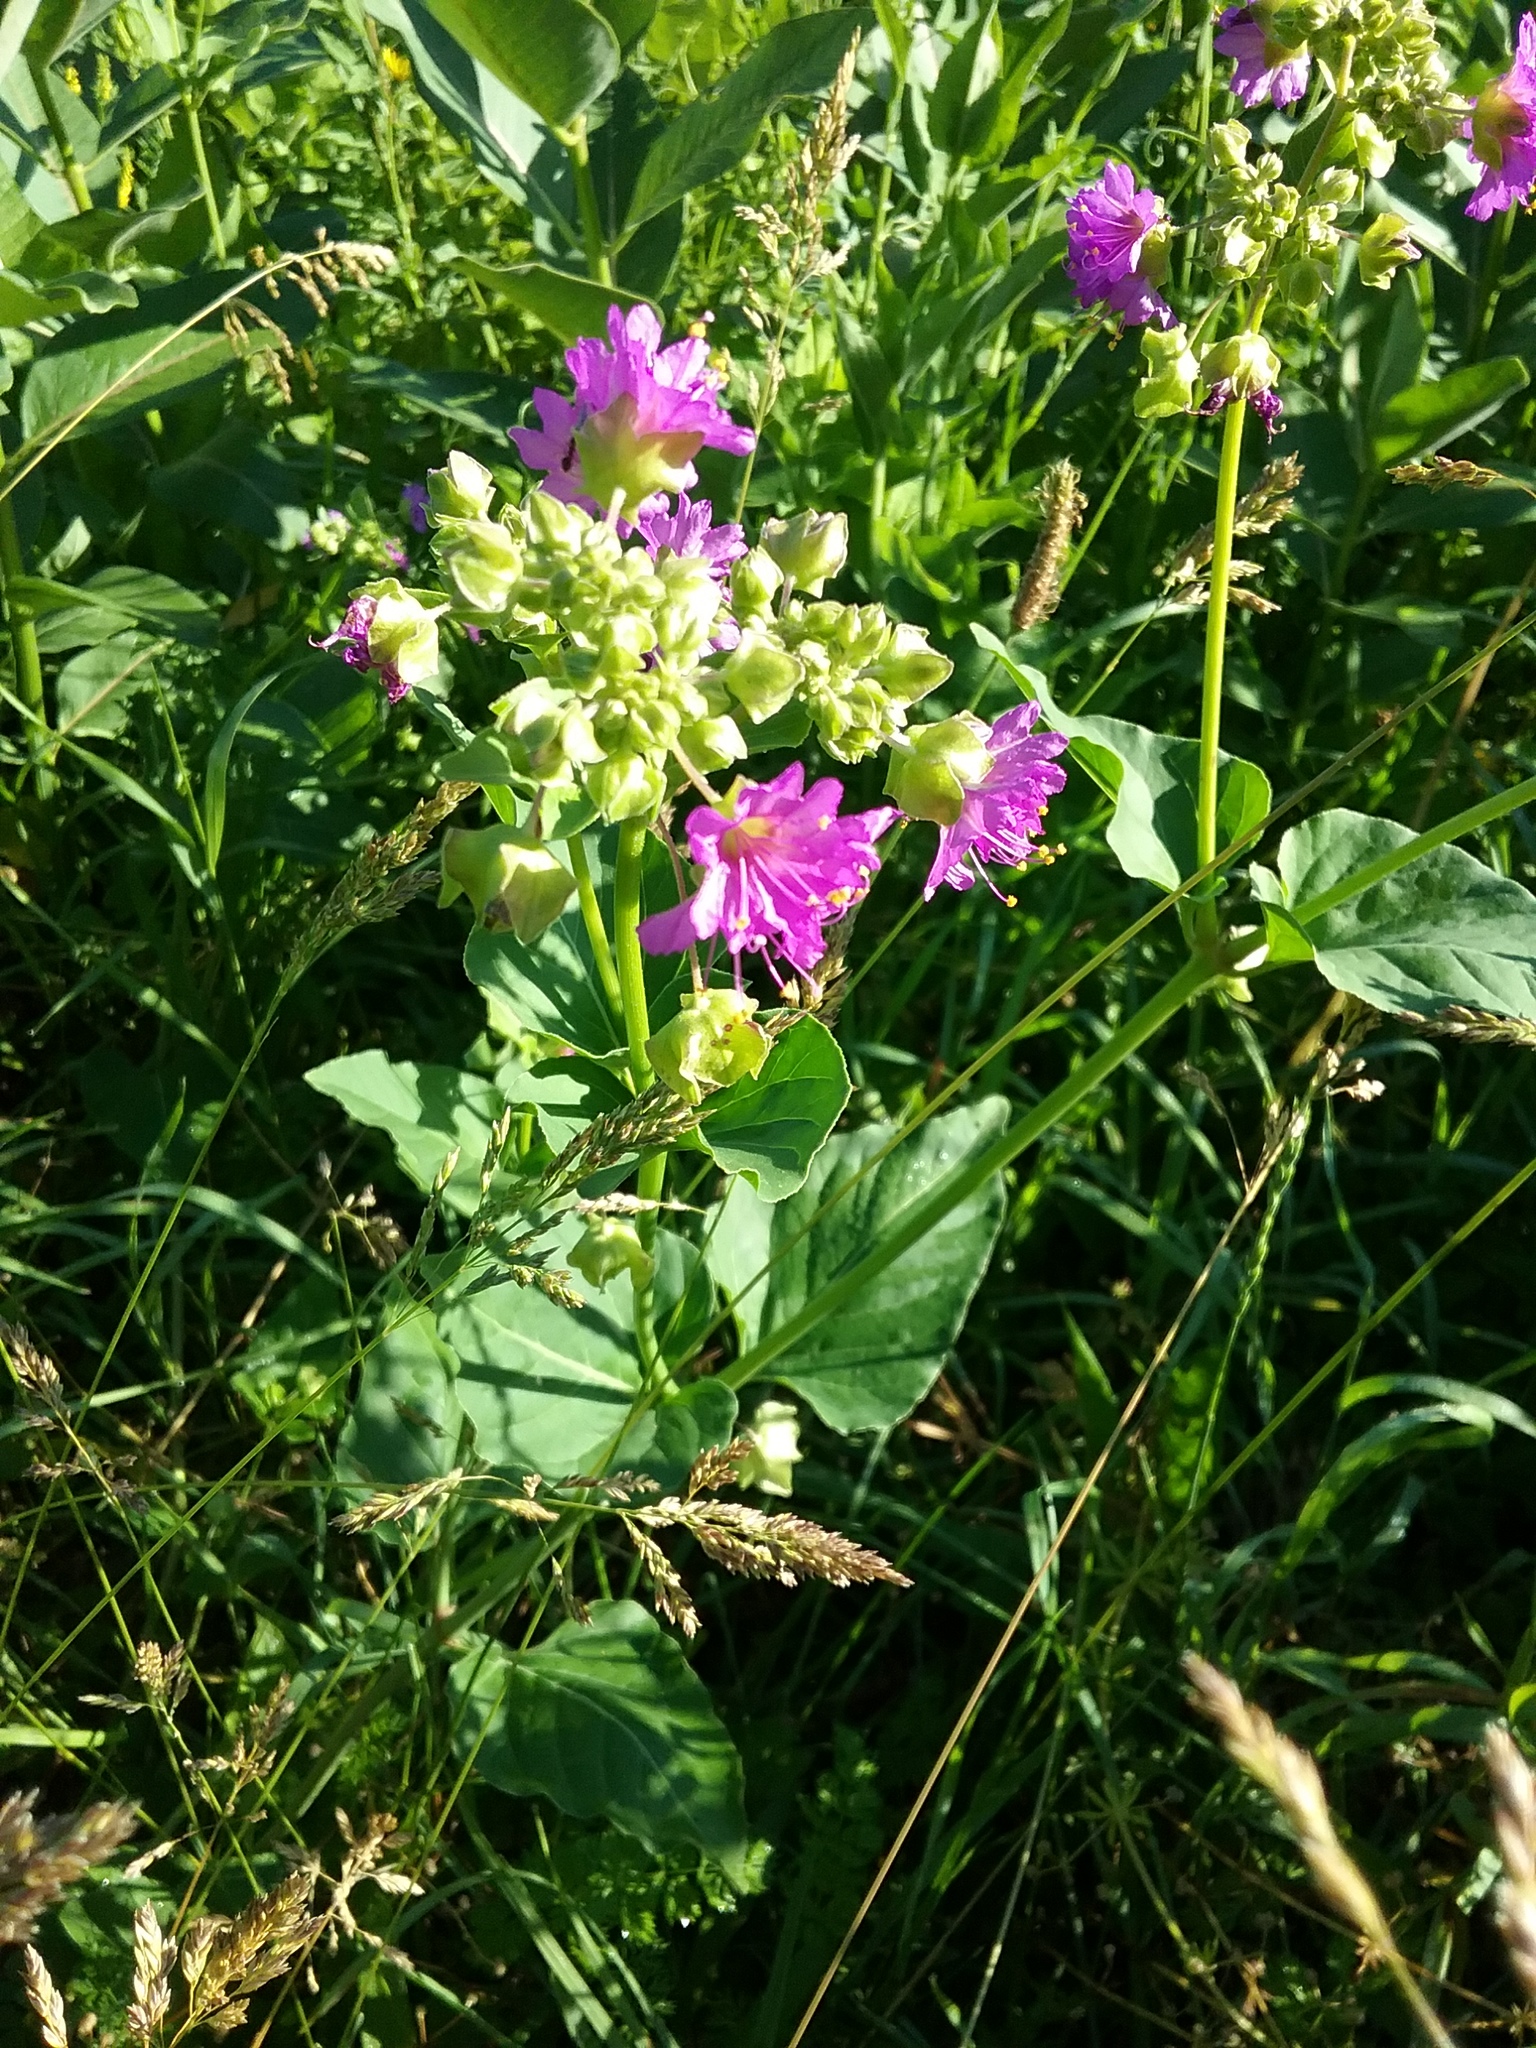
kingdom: Plantae
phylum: Tracheophyta
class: Magnoliopsida
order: Caryophyllales
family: Nyctaginaceae
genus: Mirabilis
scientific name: Mirabilis nyctaginea
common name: Umbrella wort
